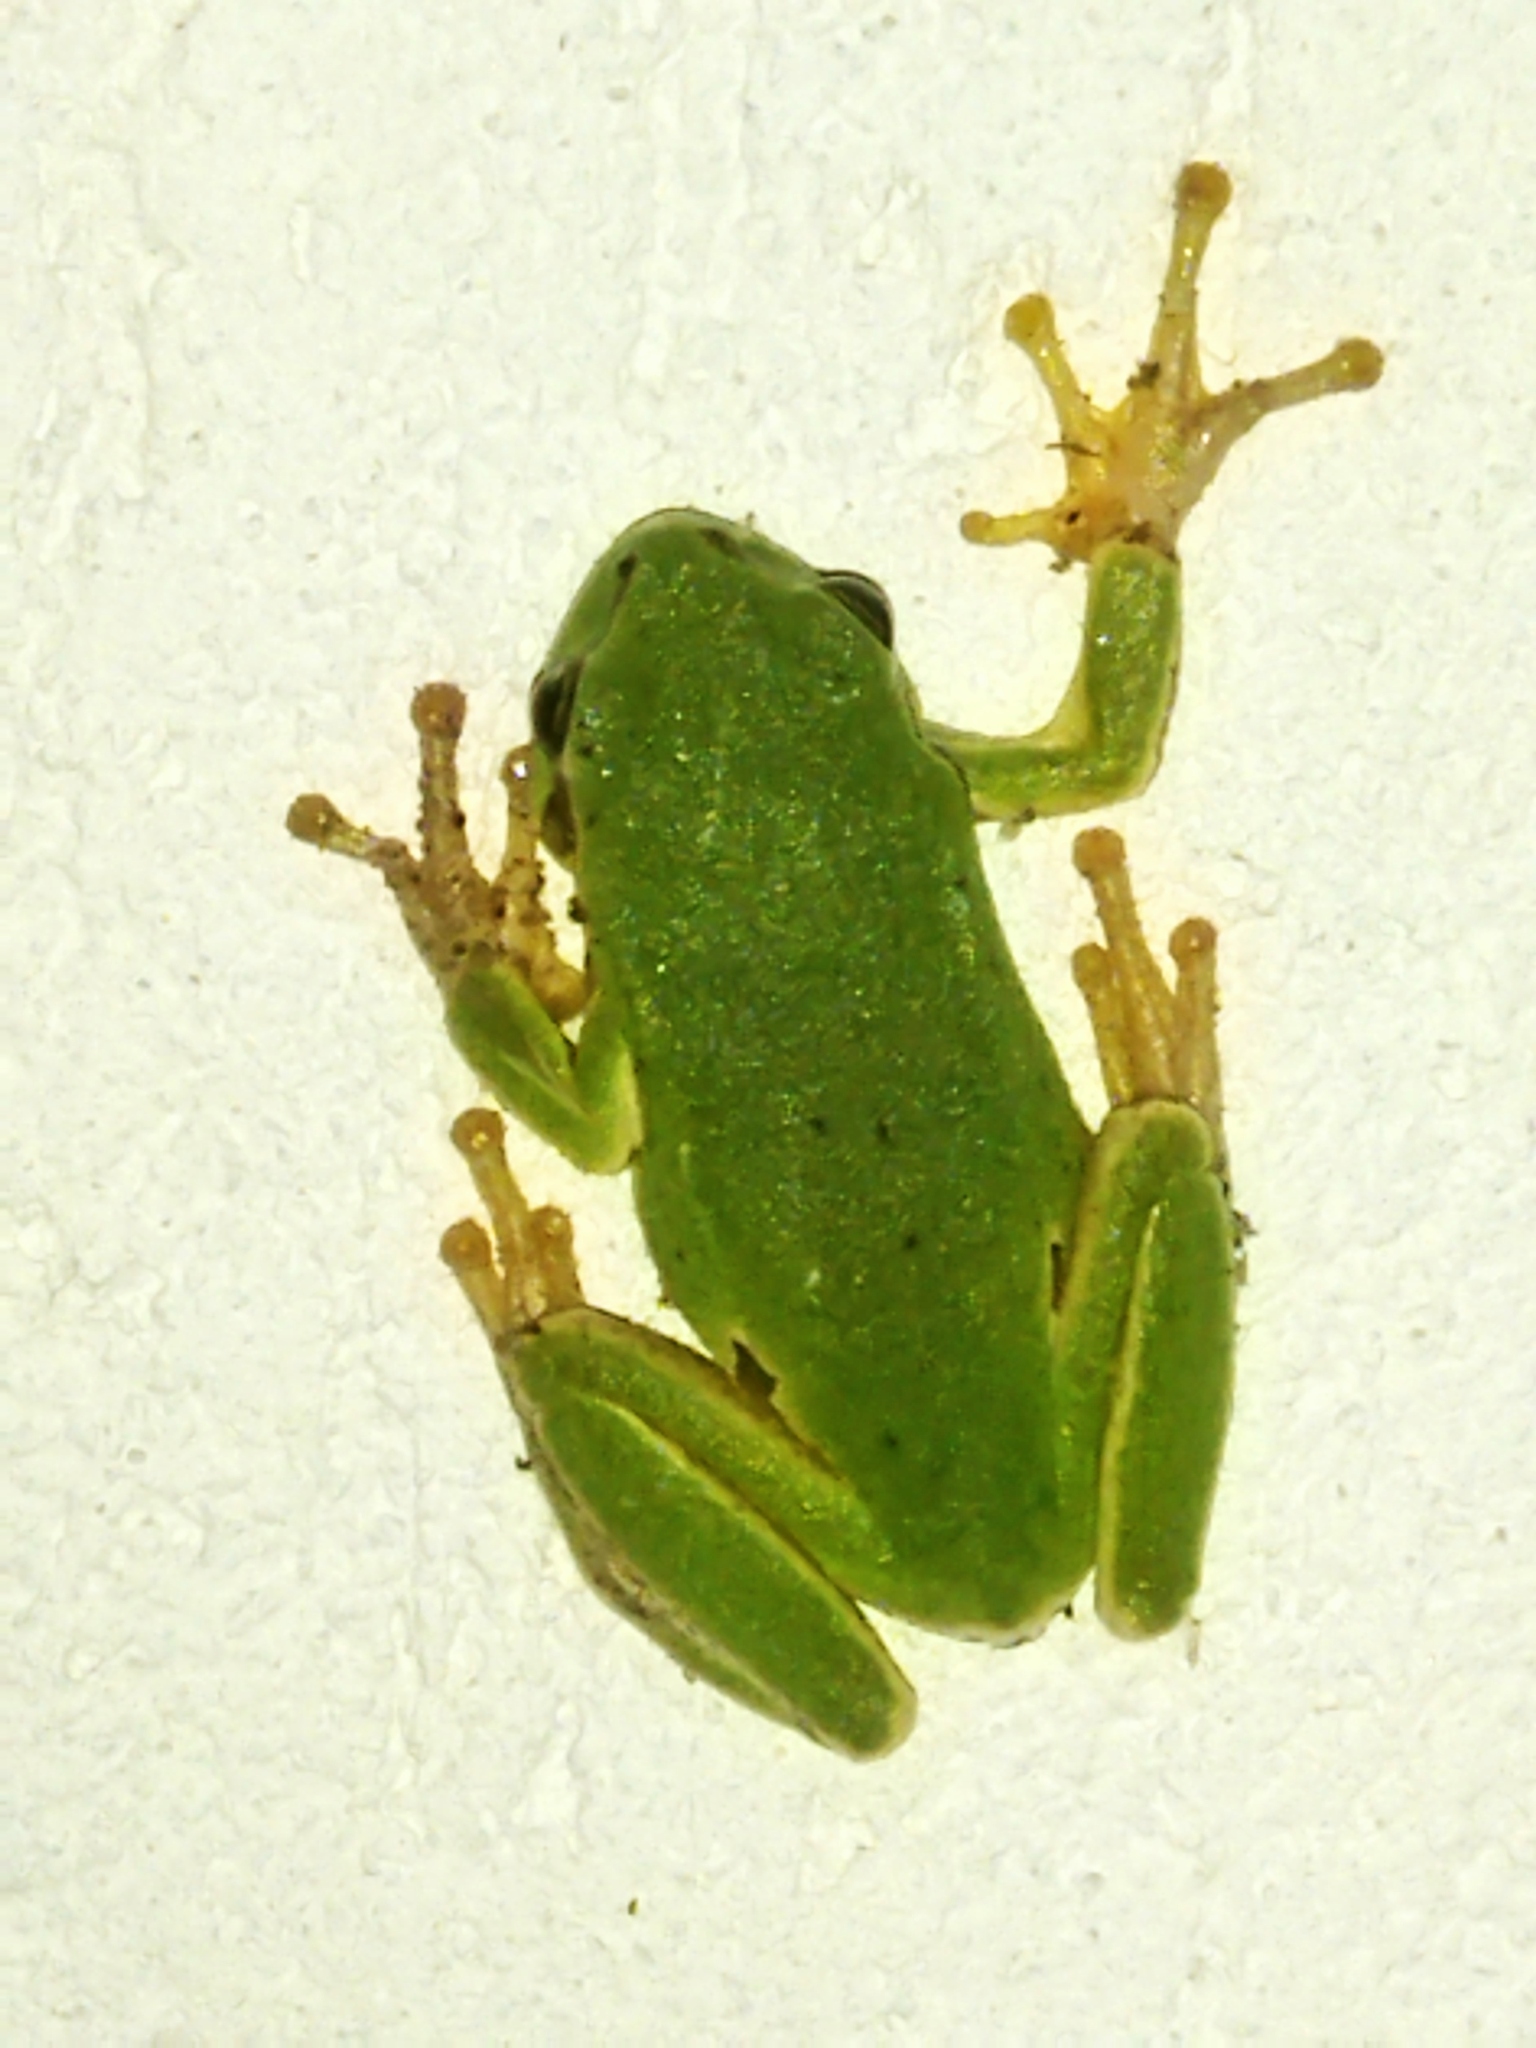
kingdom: Animalia
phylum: Chordata
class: Amphibia
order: Anura
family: Hylidae
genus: Hyla
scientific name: Hyla orientalis
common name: Caucasian treefrog
